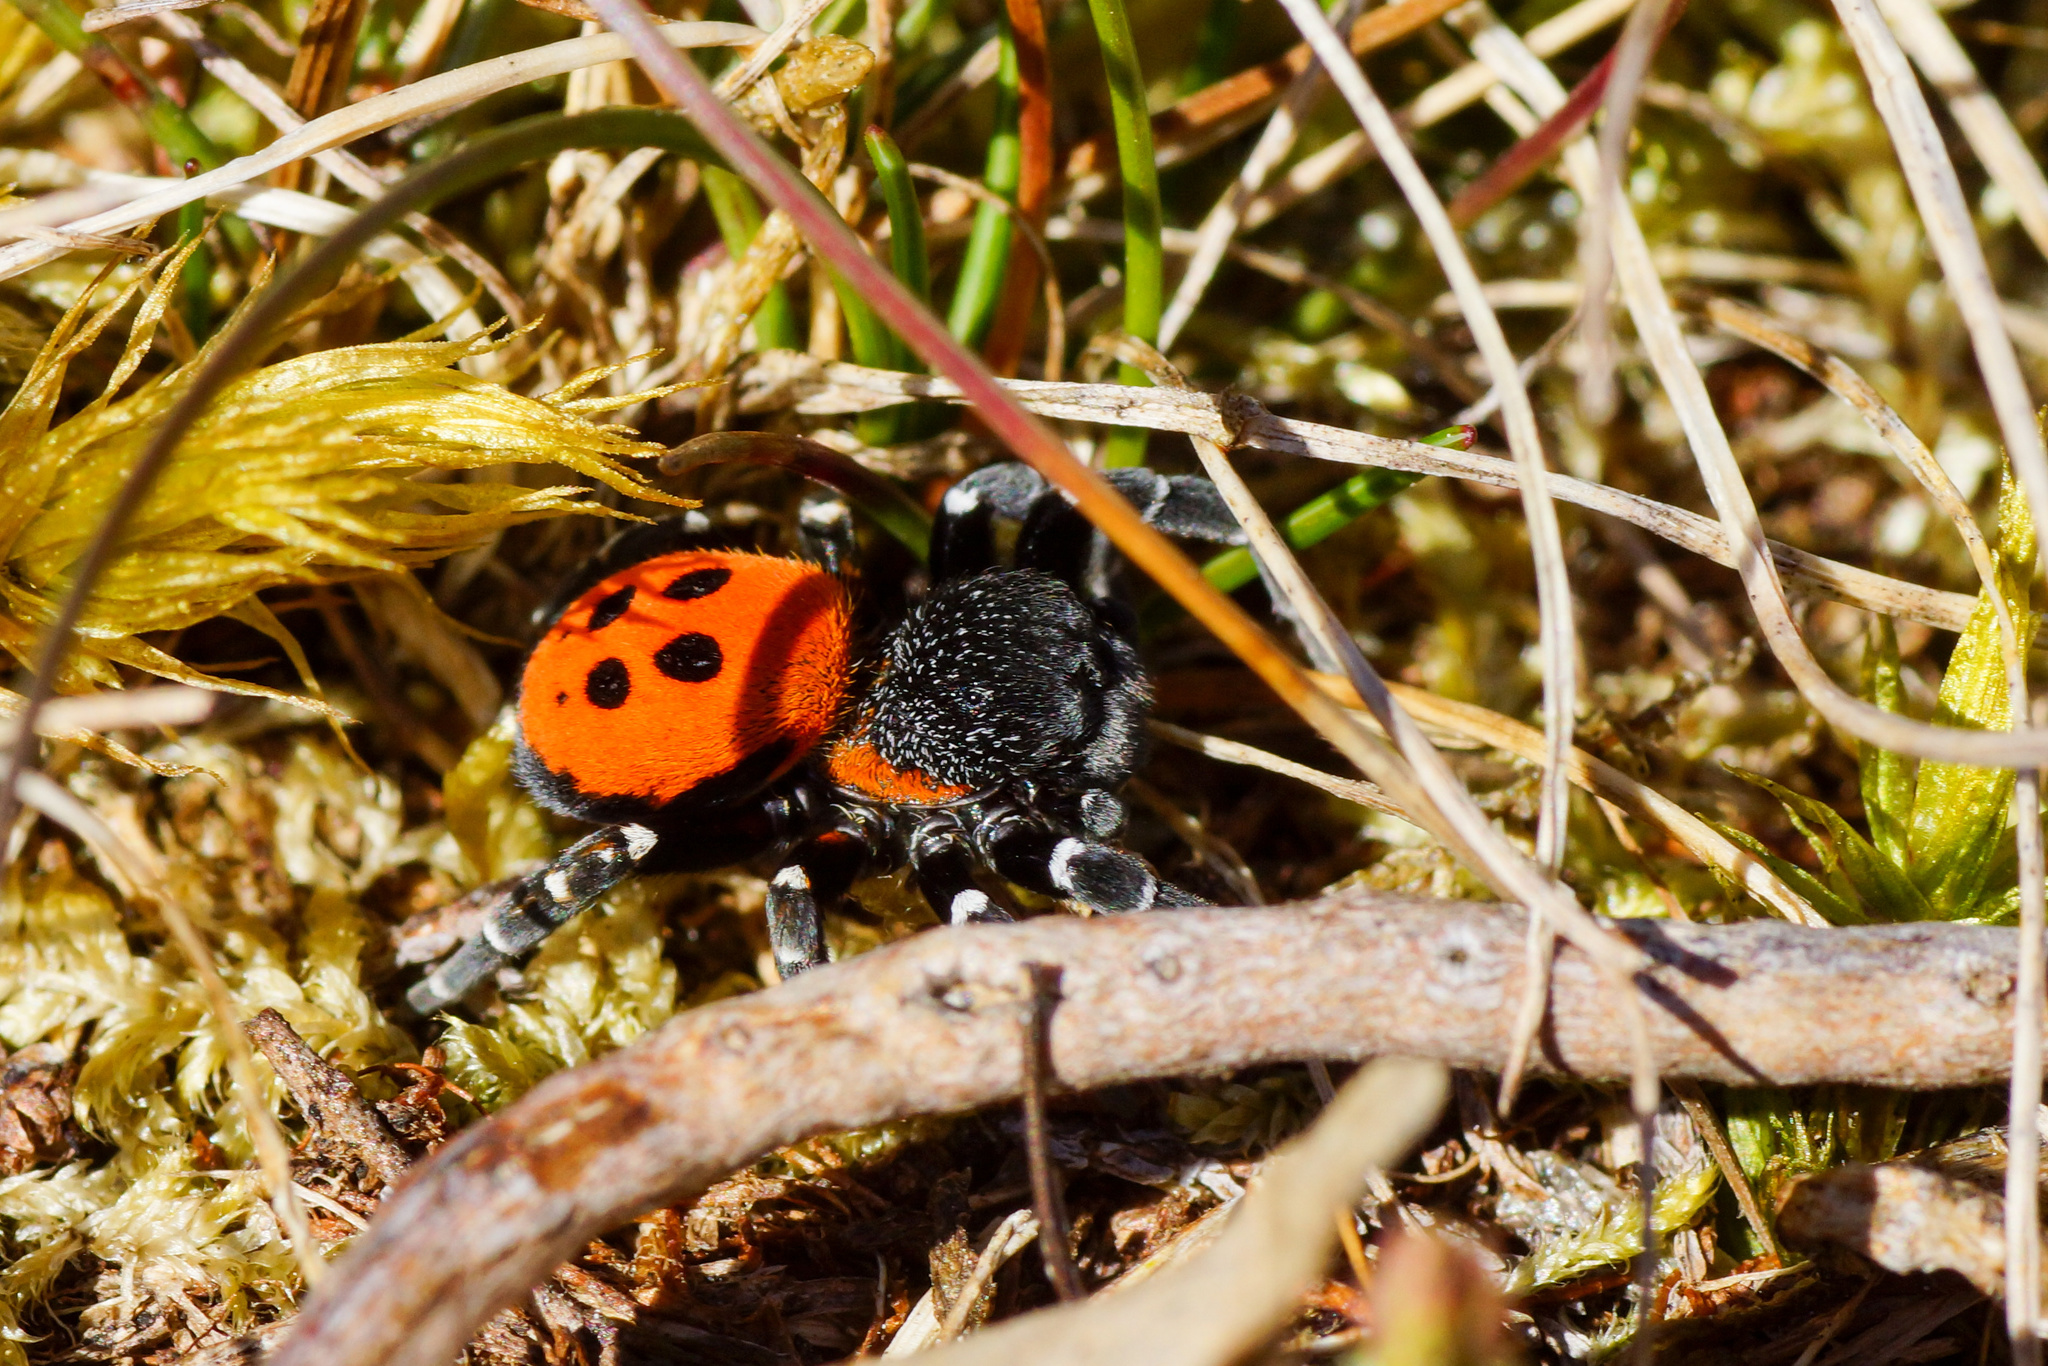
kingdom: Animalia
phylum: Arthropoda
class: Arachnida
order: Araneae
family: Eresidae
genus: Eresus
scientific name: Eresus sandaliatus
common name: Ladybird spider
